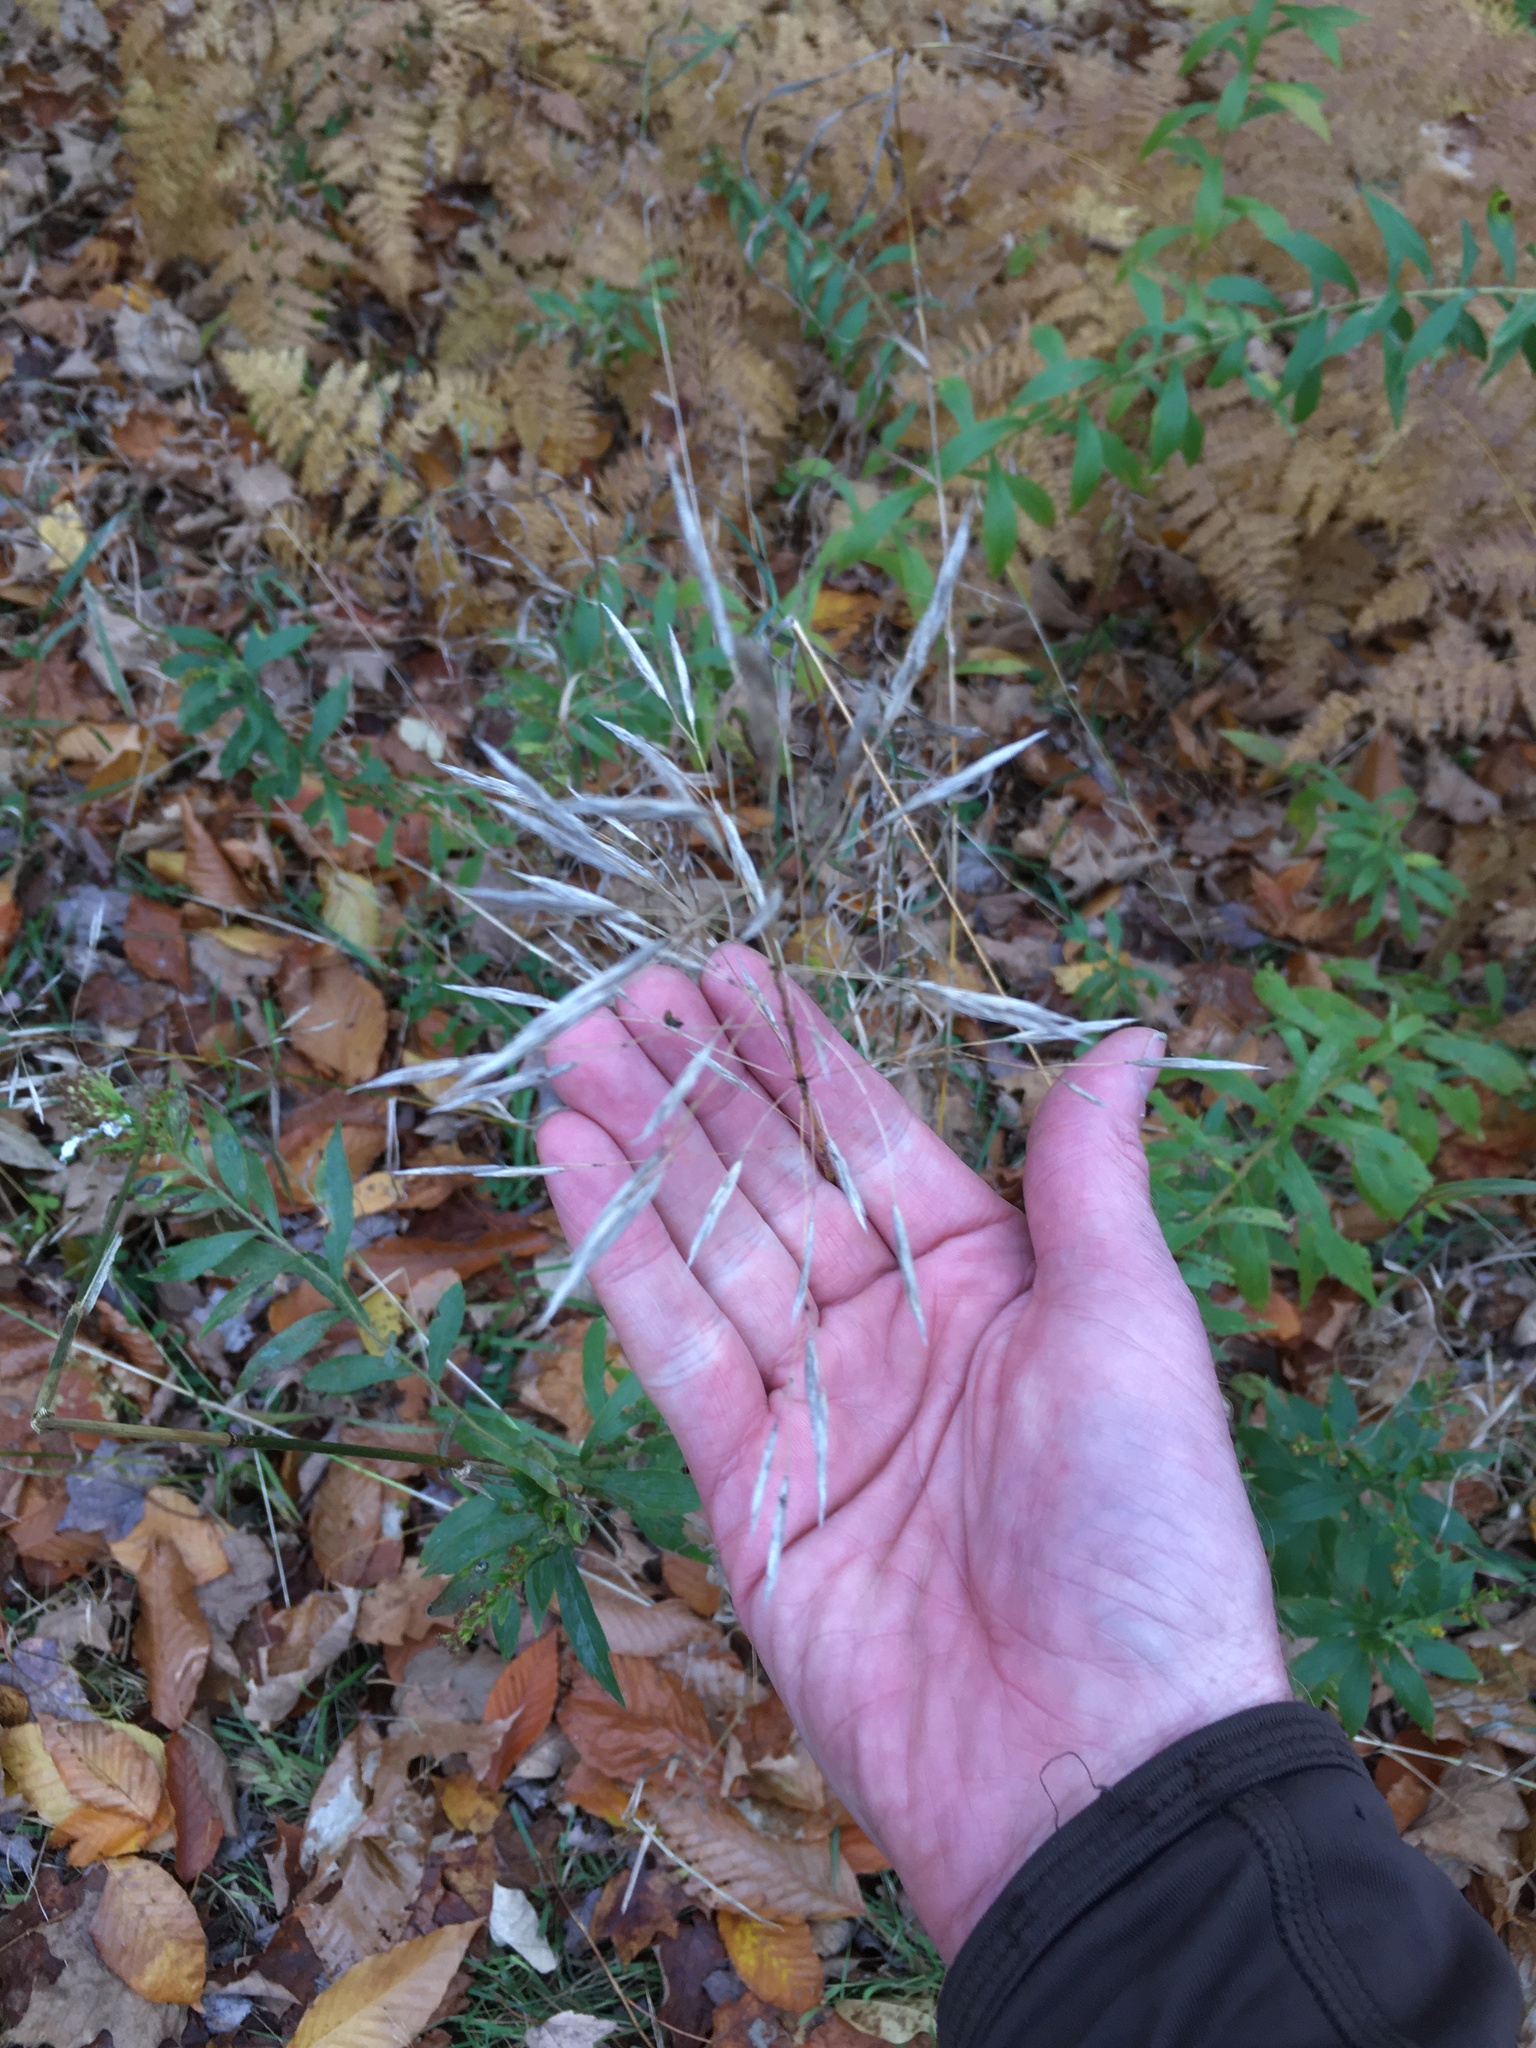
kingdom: Plantae
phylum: Tracheophyta
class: Liliopsida
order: Poales
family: Poaceae
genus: Bromus
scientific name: Bromus inermis
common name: Smooth brome
